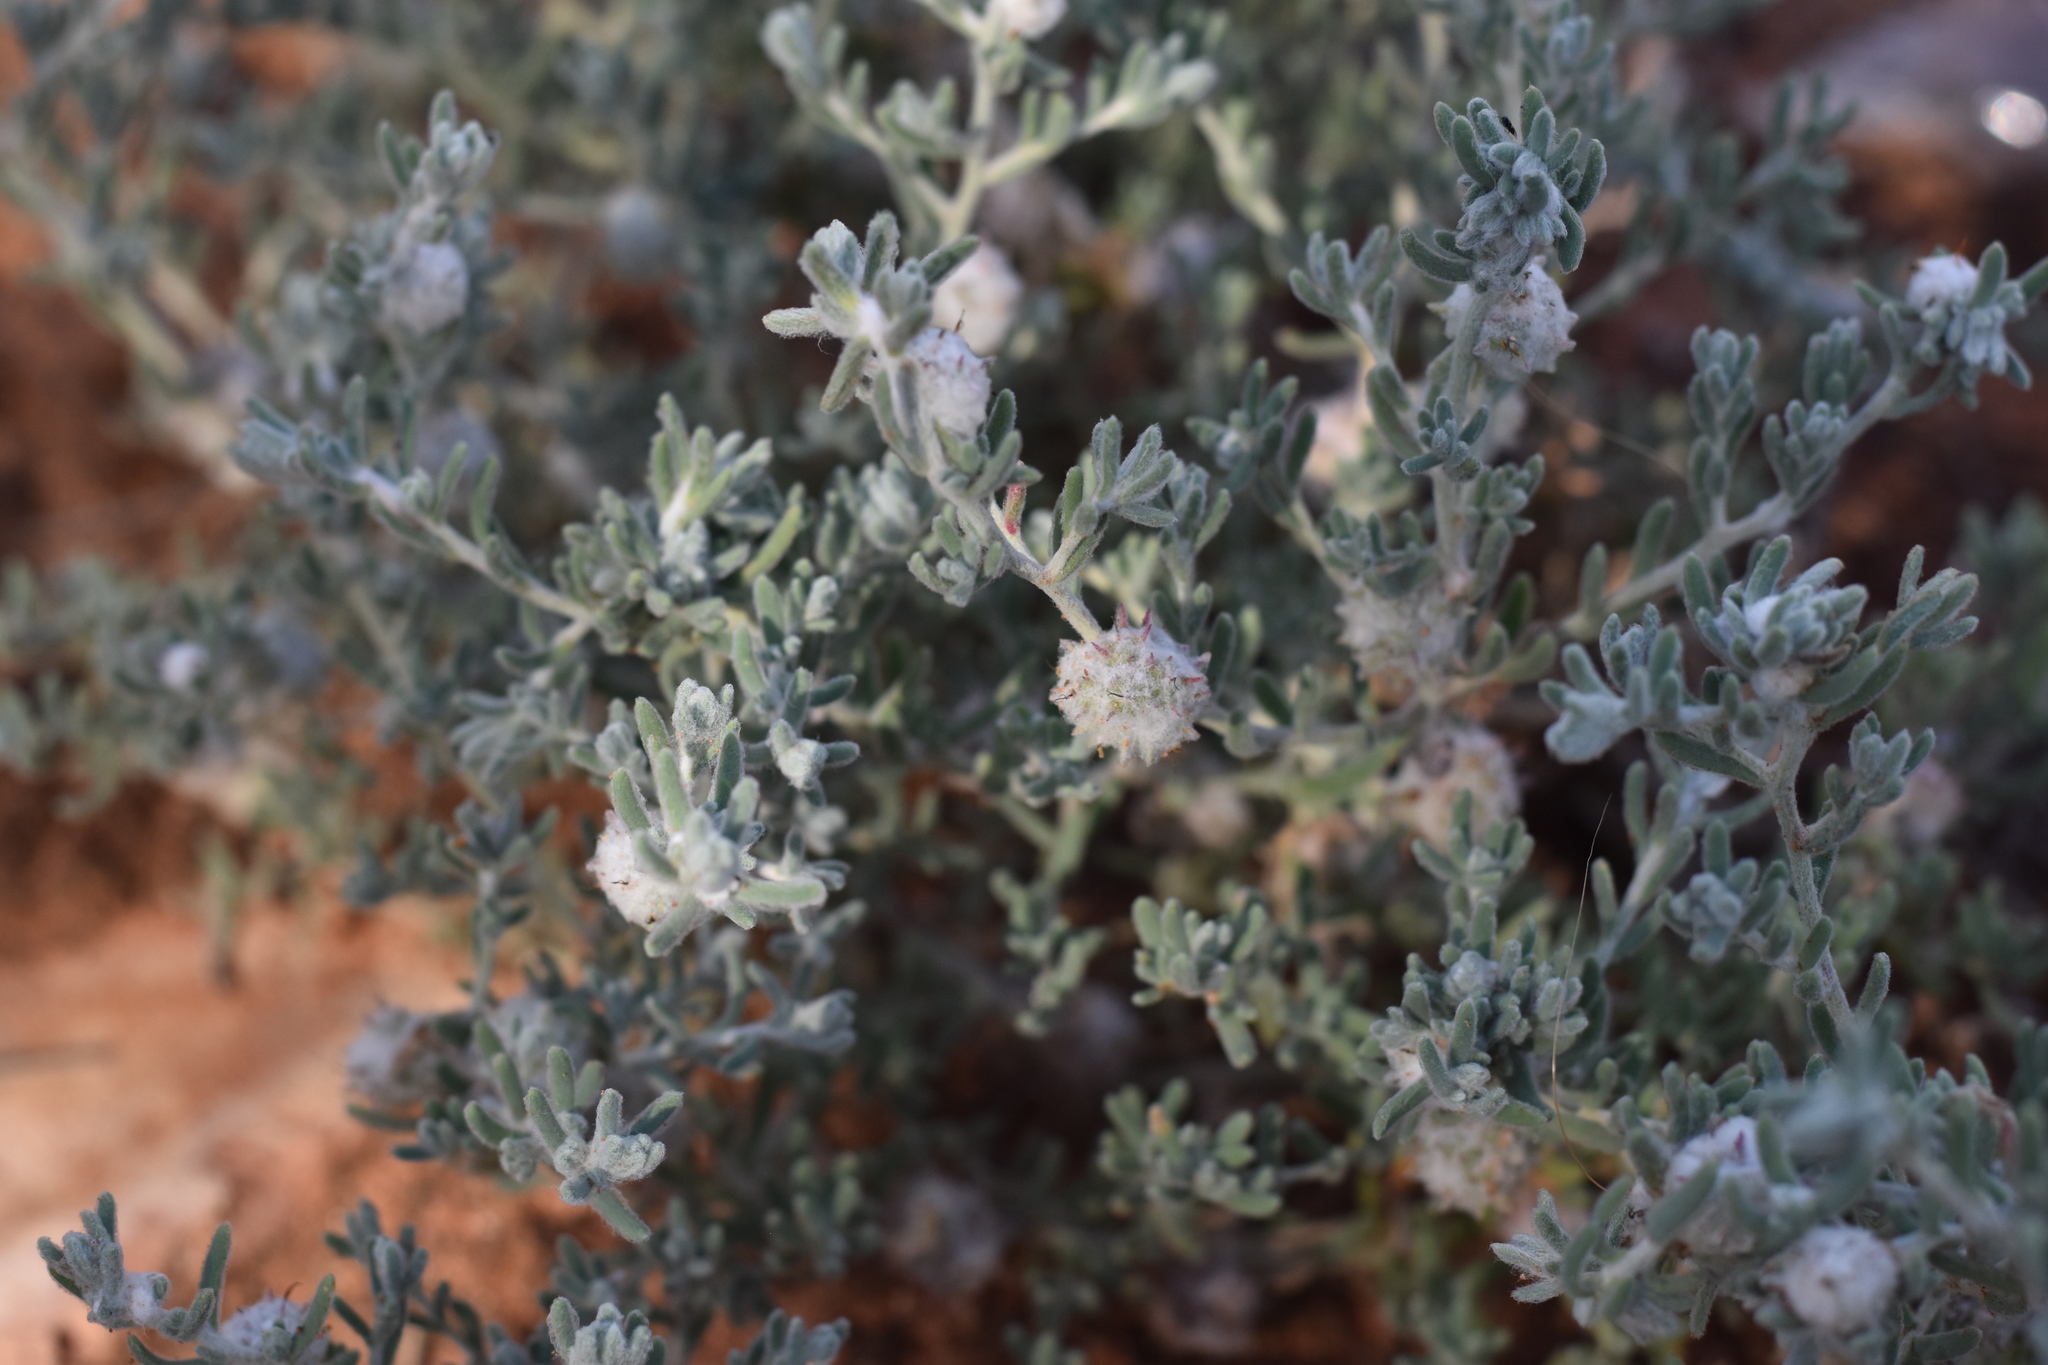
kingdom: Plantae
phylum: Tracheophyta
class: Magnoliopsida
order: Caryophyllales
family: Amaranthaceae
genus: Dissocarpus
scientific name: Dissocarpus paradoxus
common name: Bur-saltbush
